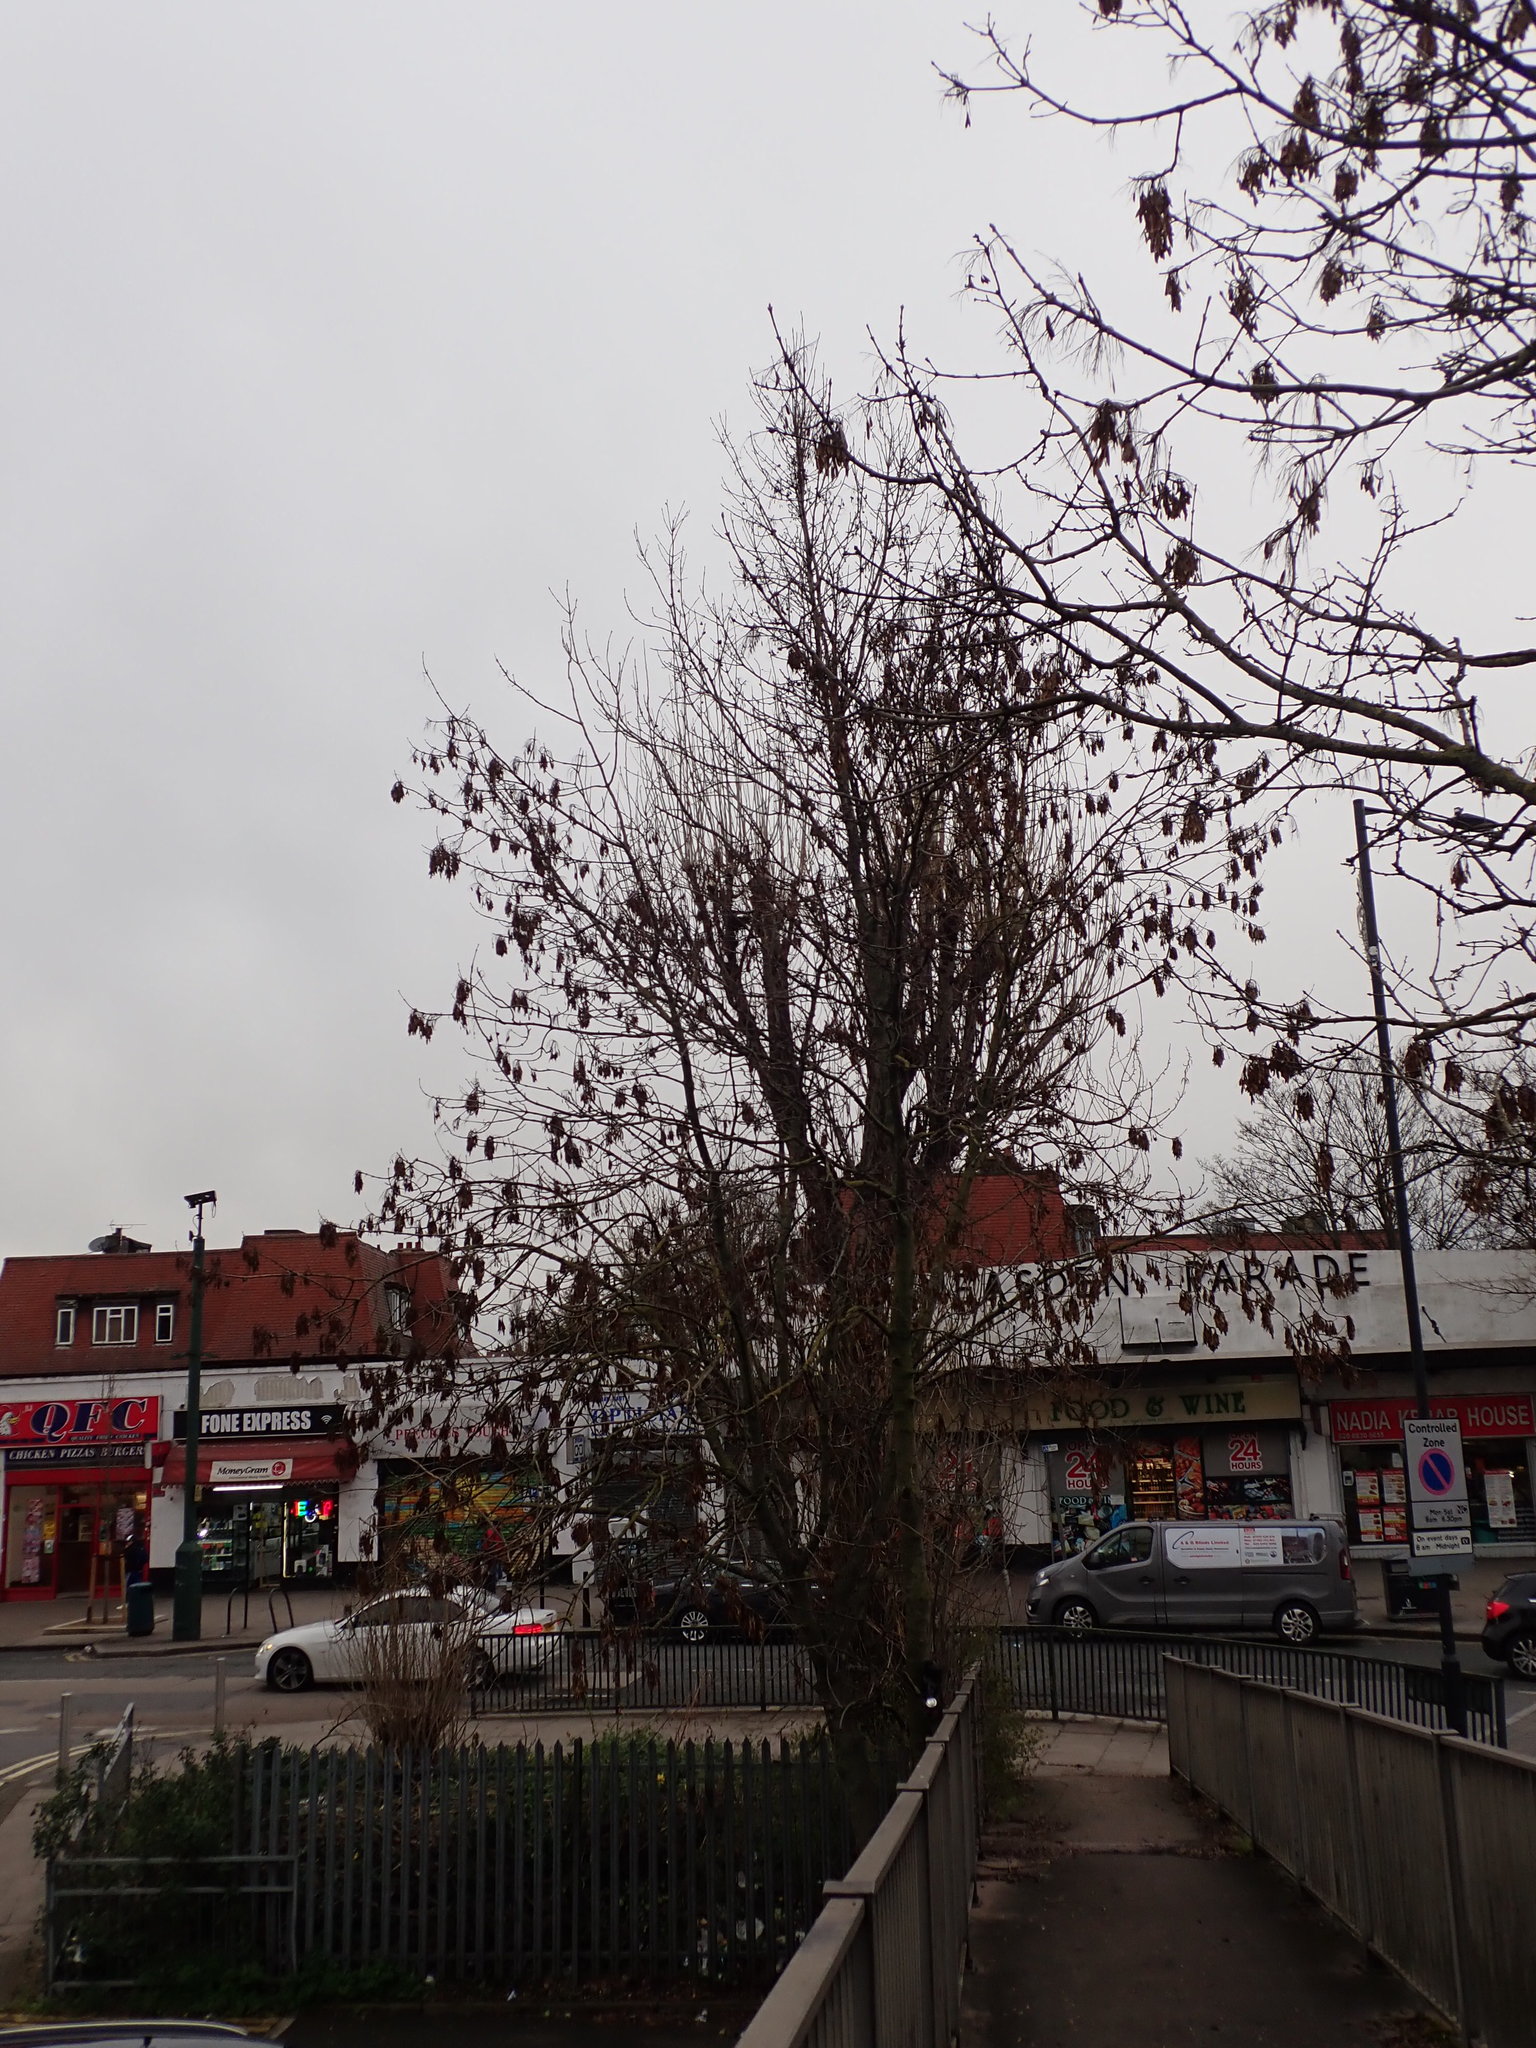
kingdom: Plantae
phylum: Tracheophyta
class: Magnoliopsida
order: Lamiales
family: Oleaceae
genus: Fraxinus
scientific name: Fraxinus excelsior
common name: European ash
